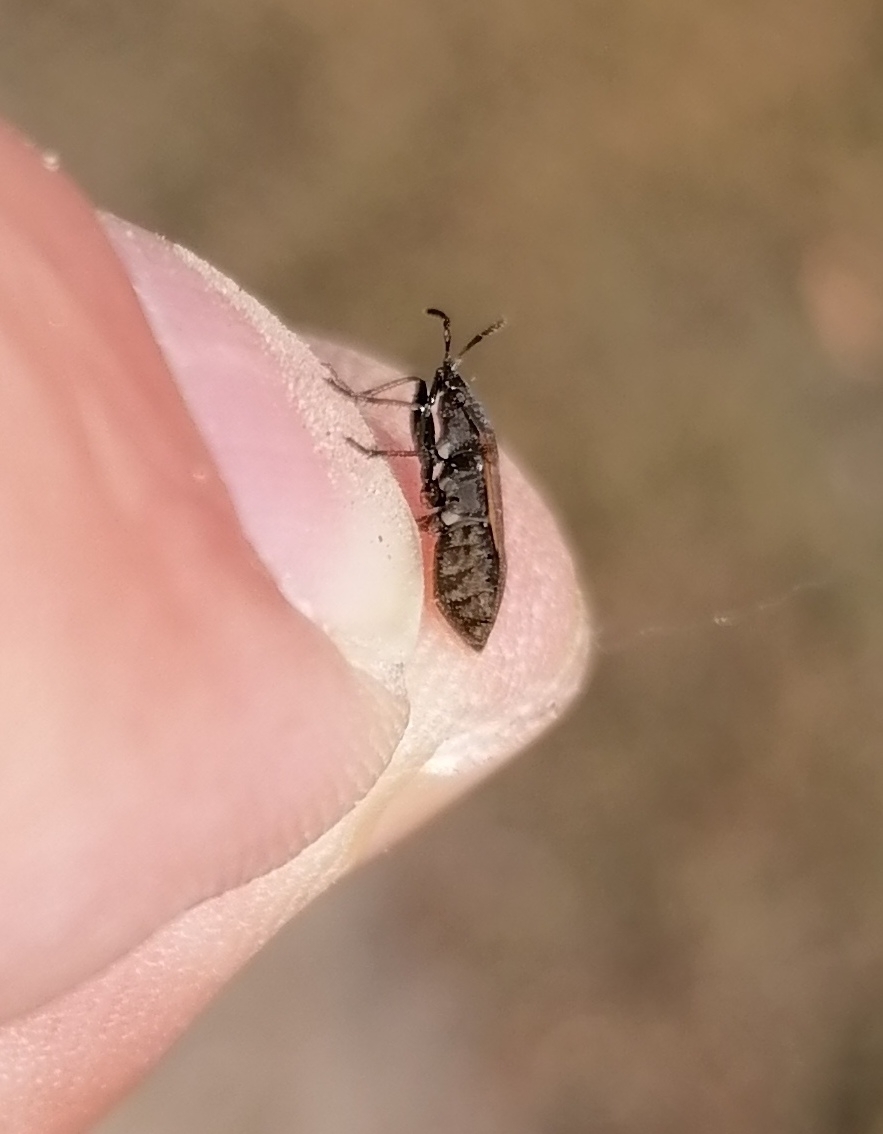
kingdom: Animalia
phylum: Arthropoda
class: Insecta
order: Hemiptera
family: Rhyparochromidae
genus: Panaorus
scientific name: Panaorus adspersus
